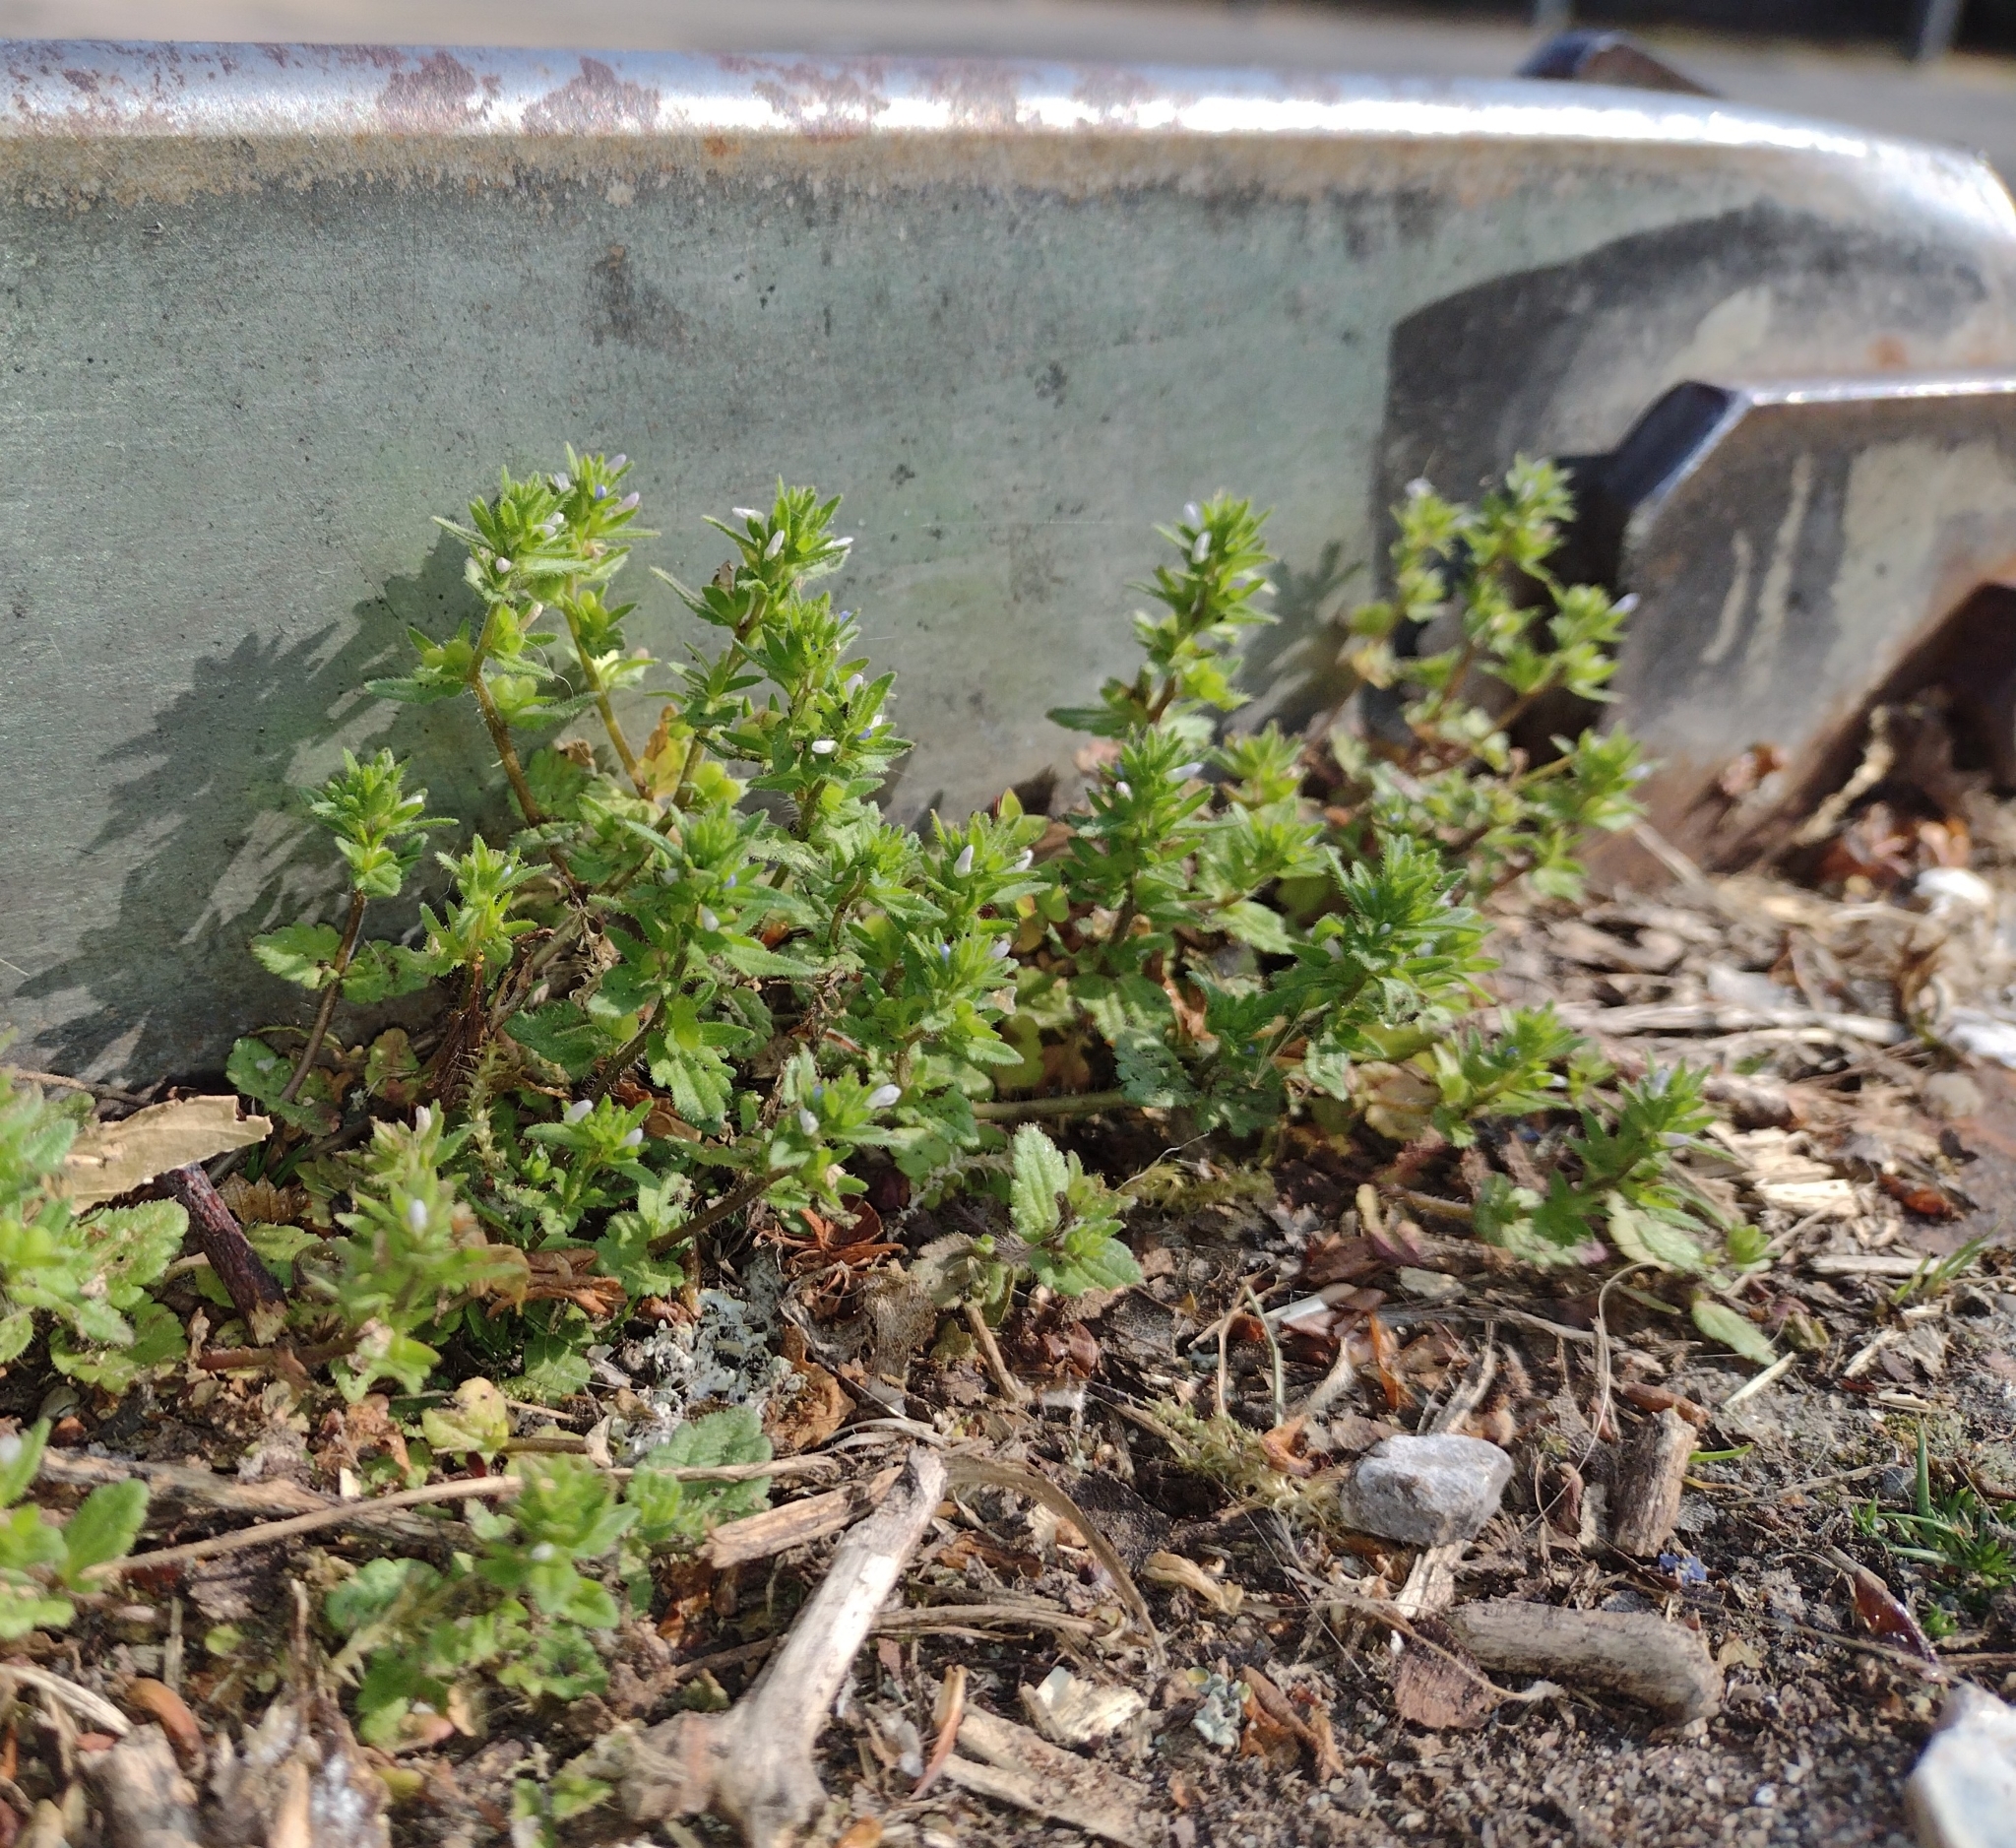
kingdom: Plantae
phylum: Tracheophyta
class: Magnoliopsida
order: Lamiales
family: Plantaginaceae
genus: Veronica
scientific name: Veronica arvensis
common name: Corn speedwell
